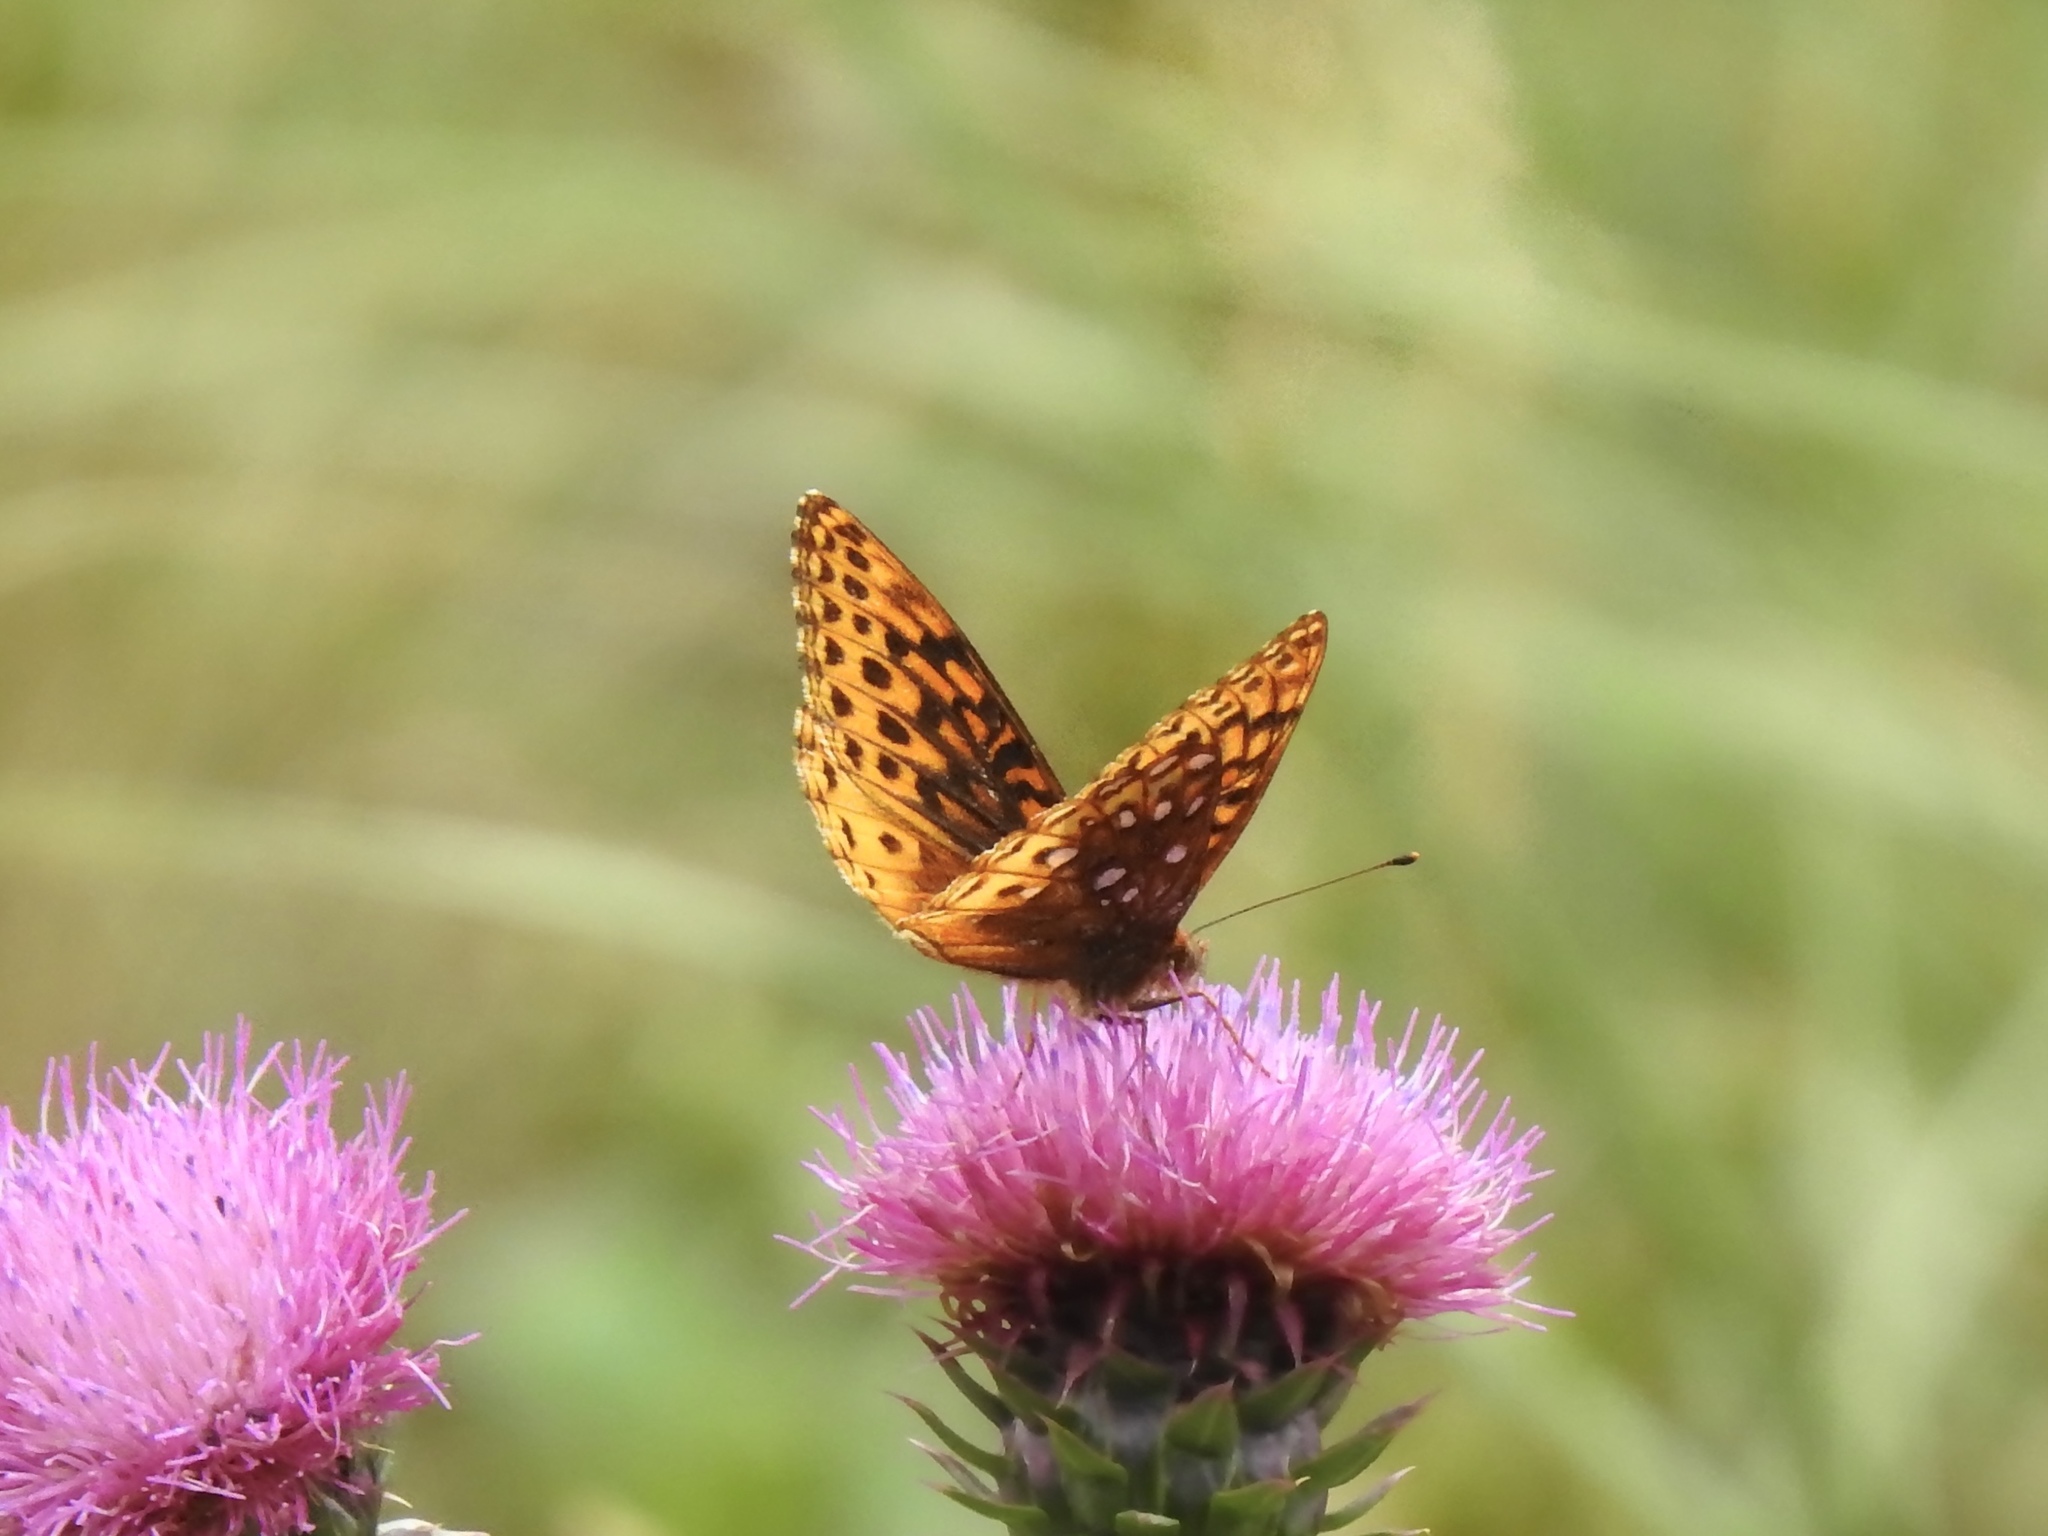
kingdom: Animalia
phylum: Arthropoda
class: Insecta
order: Lepidoptera
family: Nymphalidae
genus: Speyeria
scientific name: Speyeria atlantis
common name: Atlantis fritillary
